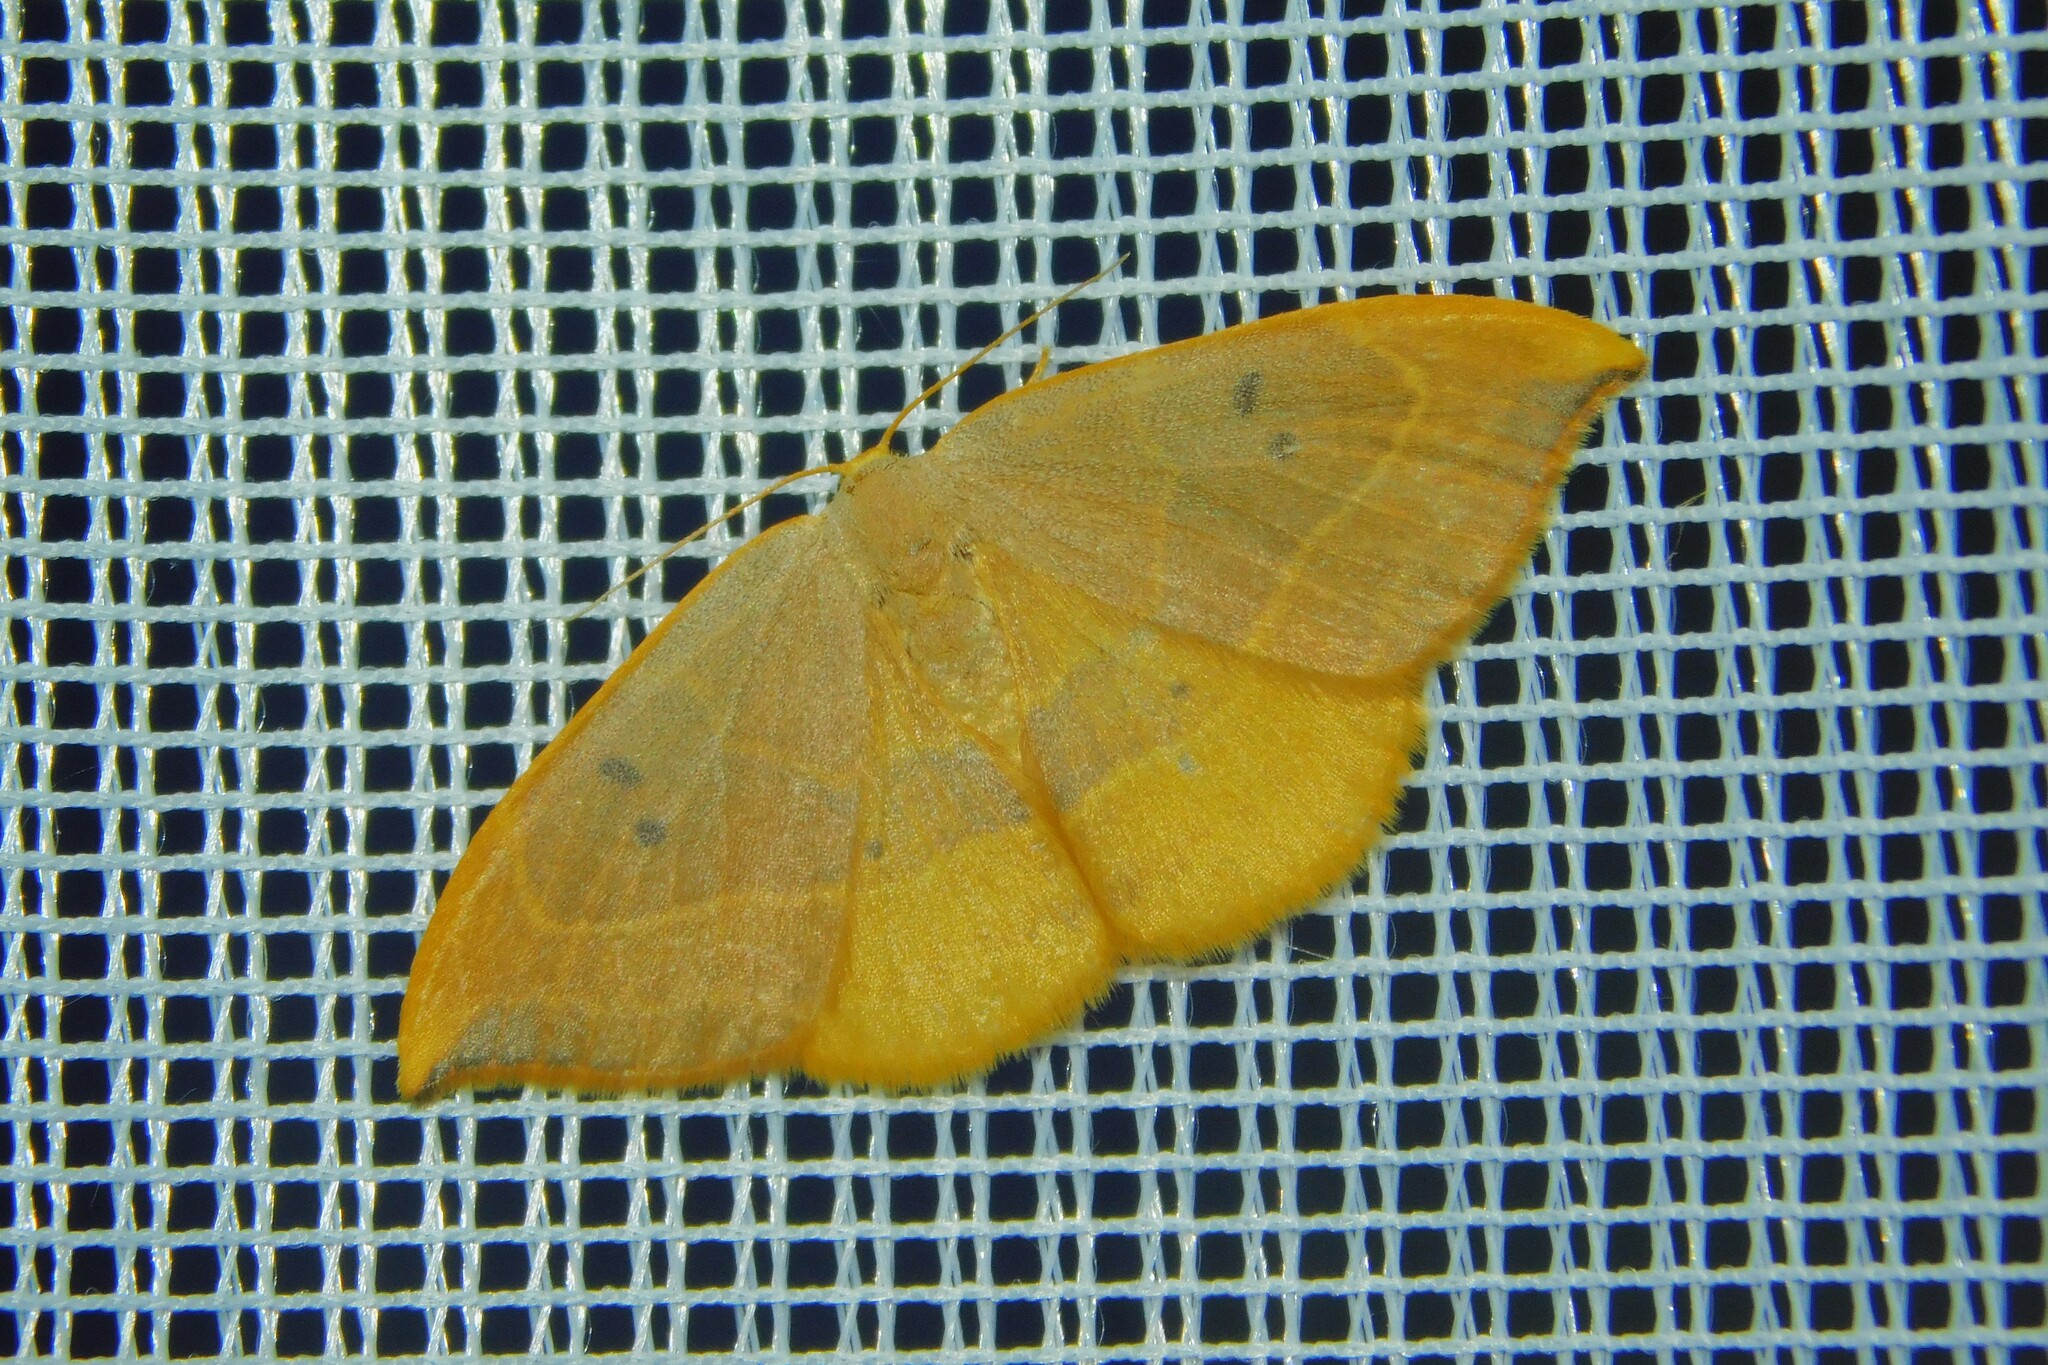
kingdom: Animalia
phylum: Arthropoda
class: Insecta
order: Lepidoptera
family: Drepanidae
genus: Watsonalla
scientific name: Watsonalla binaria
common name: Oak hook-tip
